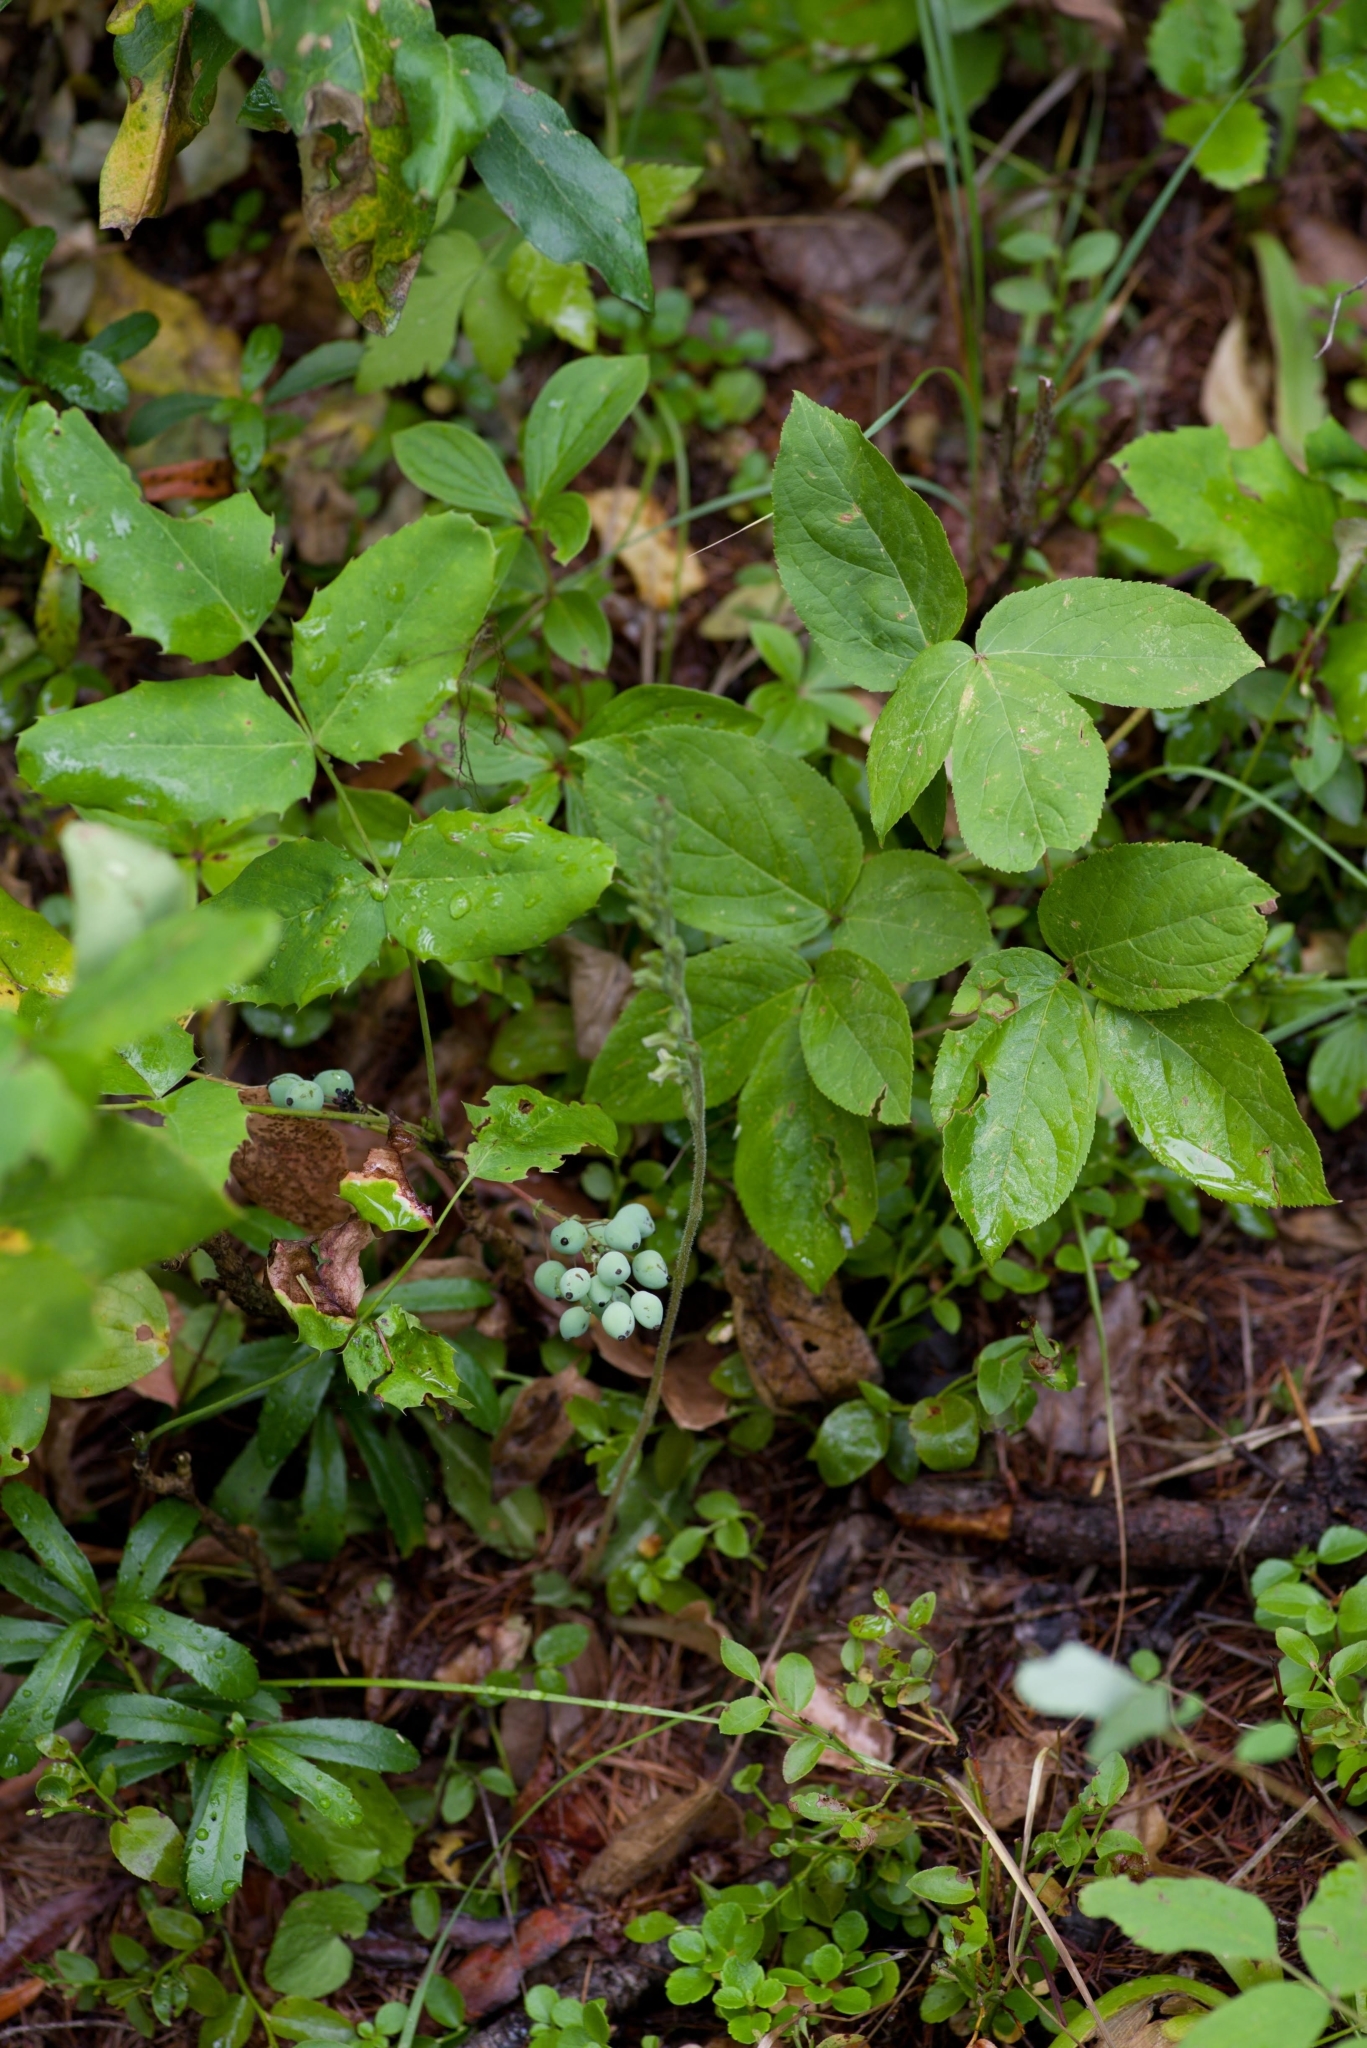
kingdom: Plantae
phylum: Tracheophyta
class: Magnoliopsida
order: Ranunculales
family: Berberidaceae
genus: Mahonia
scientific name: Mahonia repens
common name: Creeping oregon-grape
